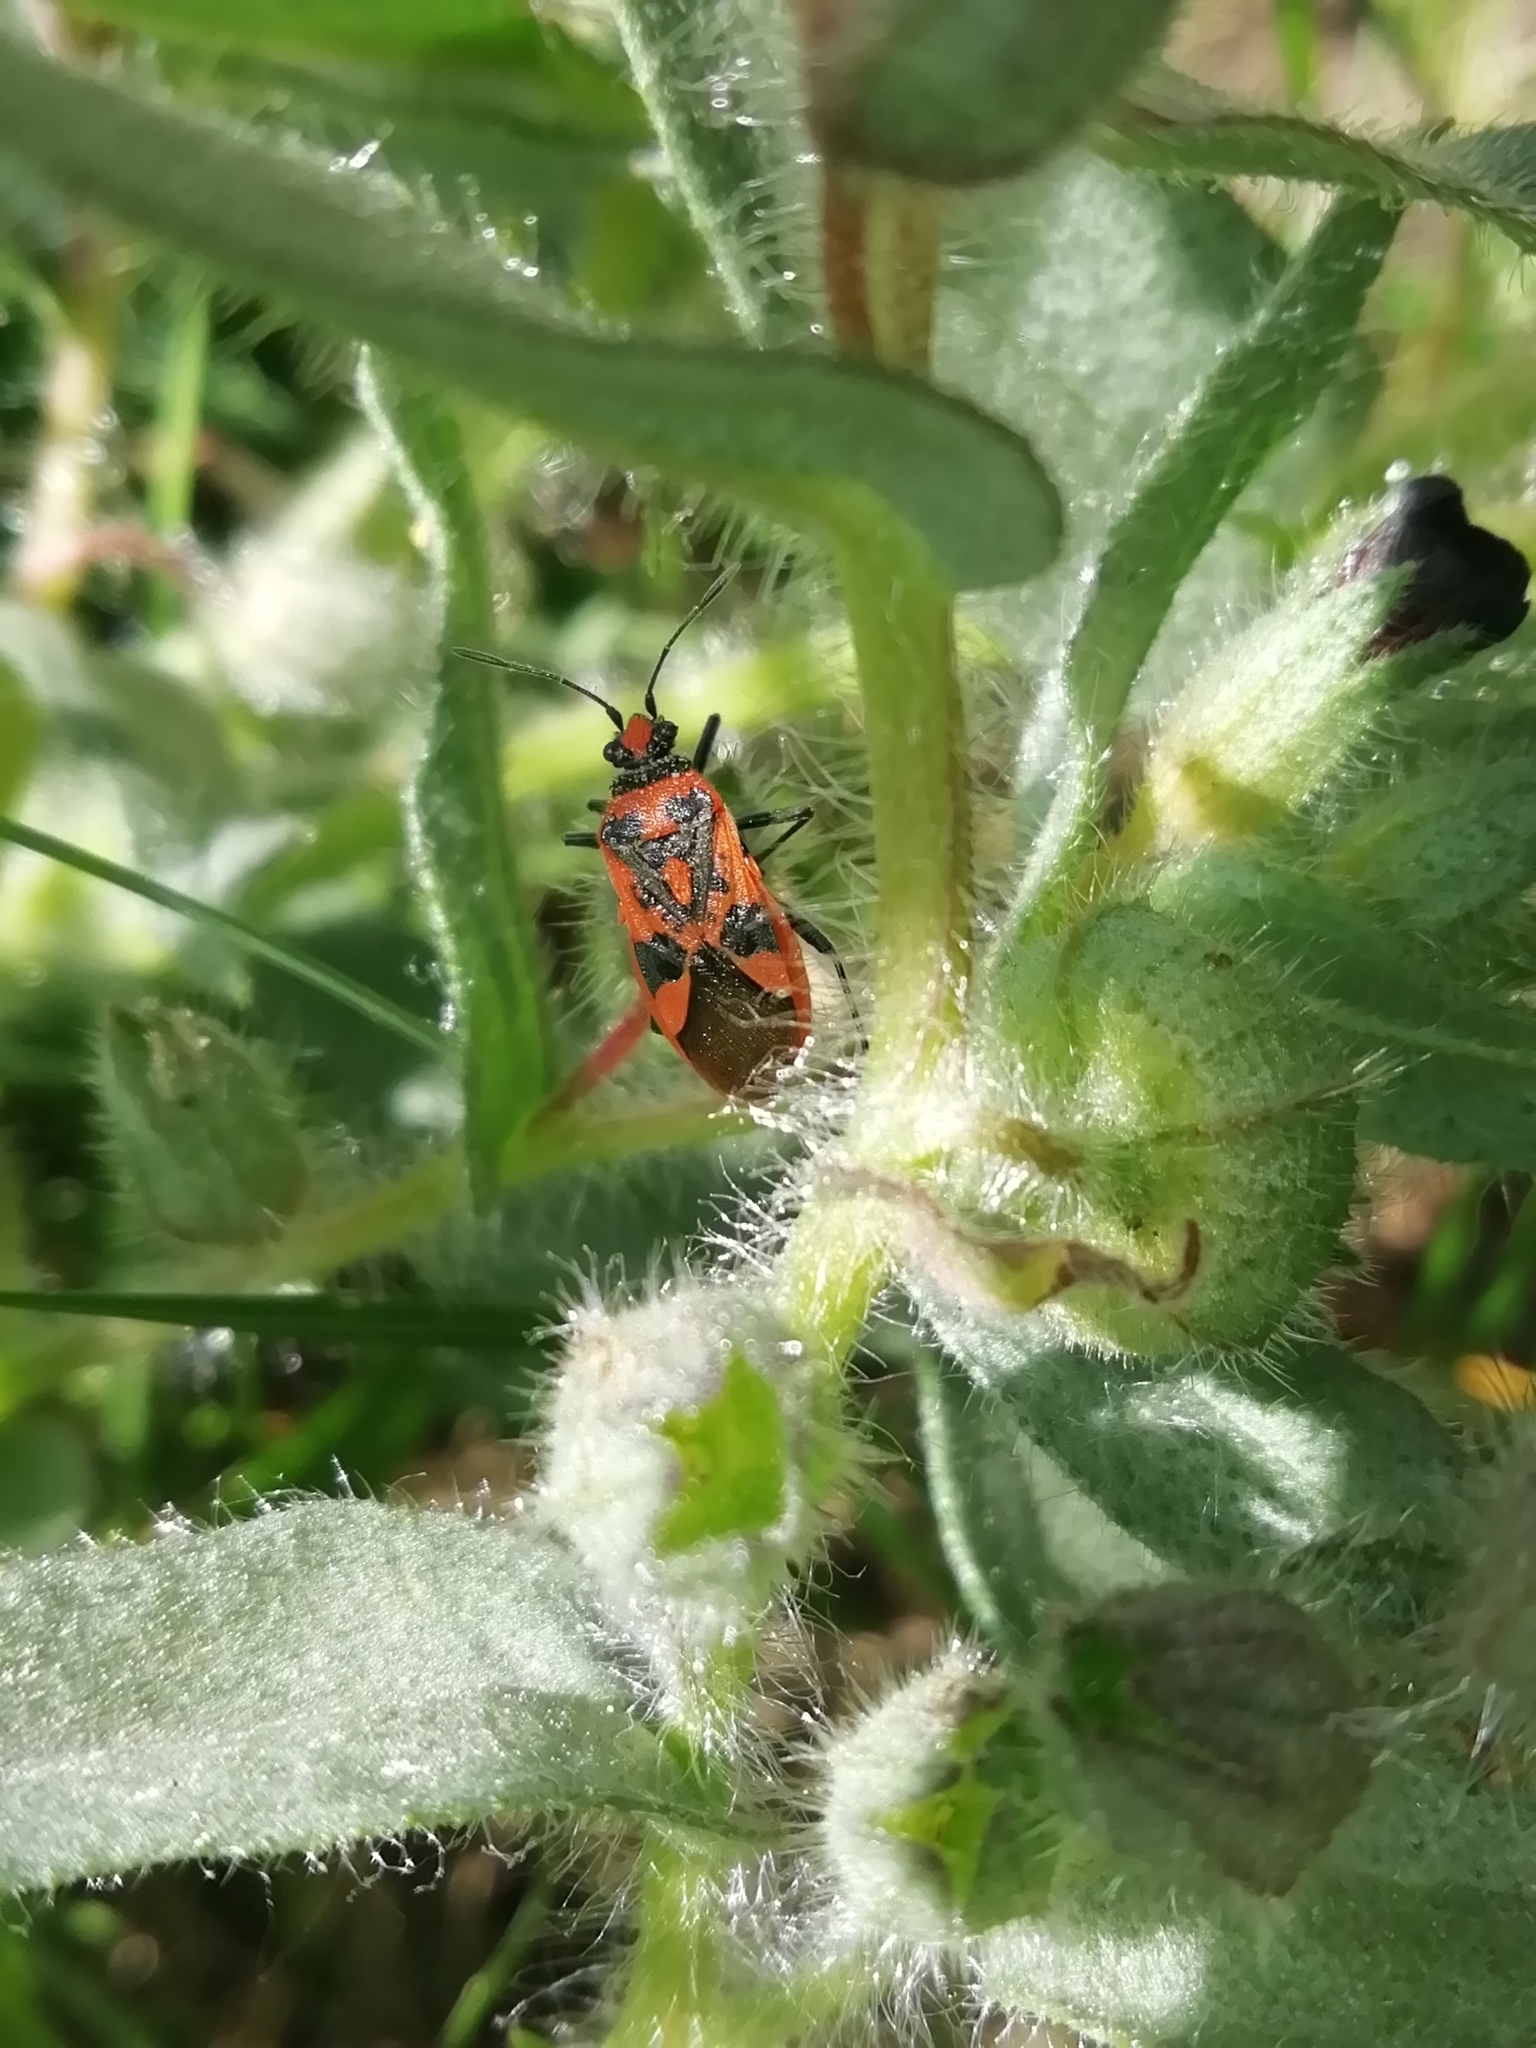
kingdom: Animalia
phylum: Arthropoda
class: Insecta
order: Hemiptera
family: Rhopalidae
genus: Corizus
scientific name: Corizus hyoscyami
